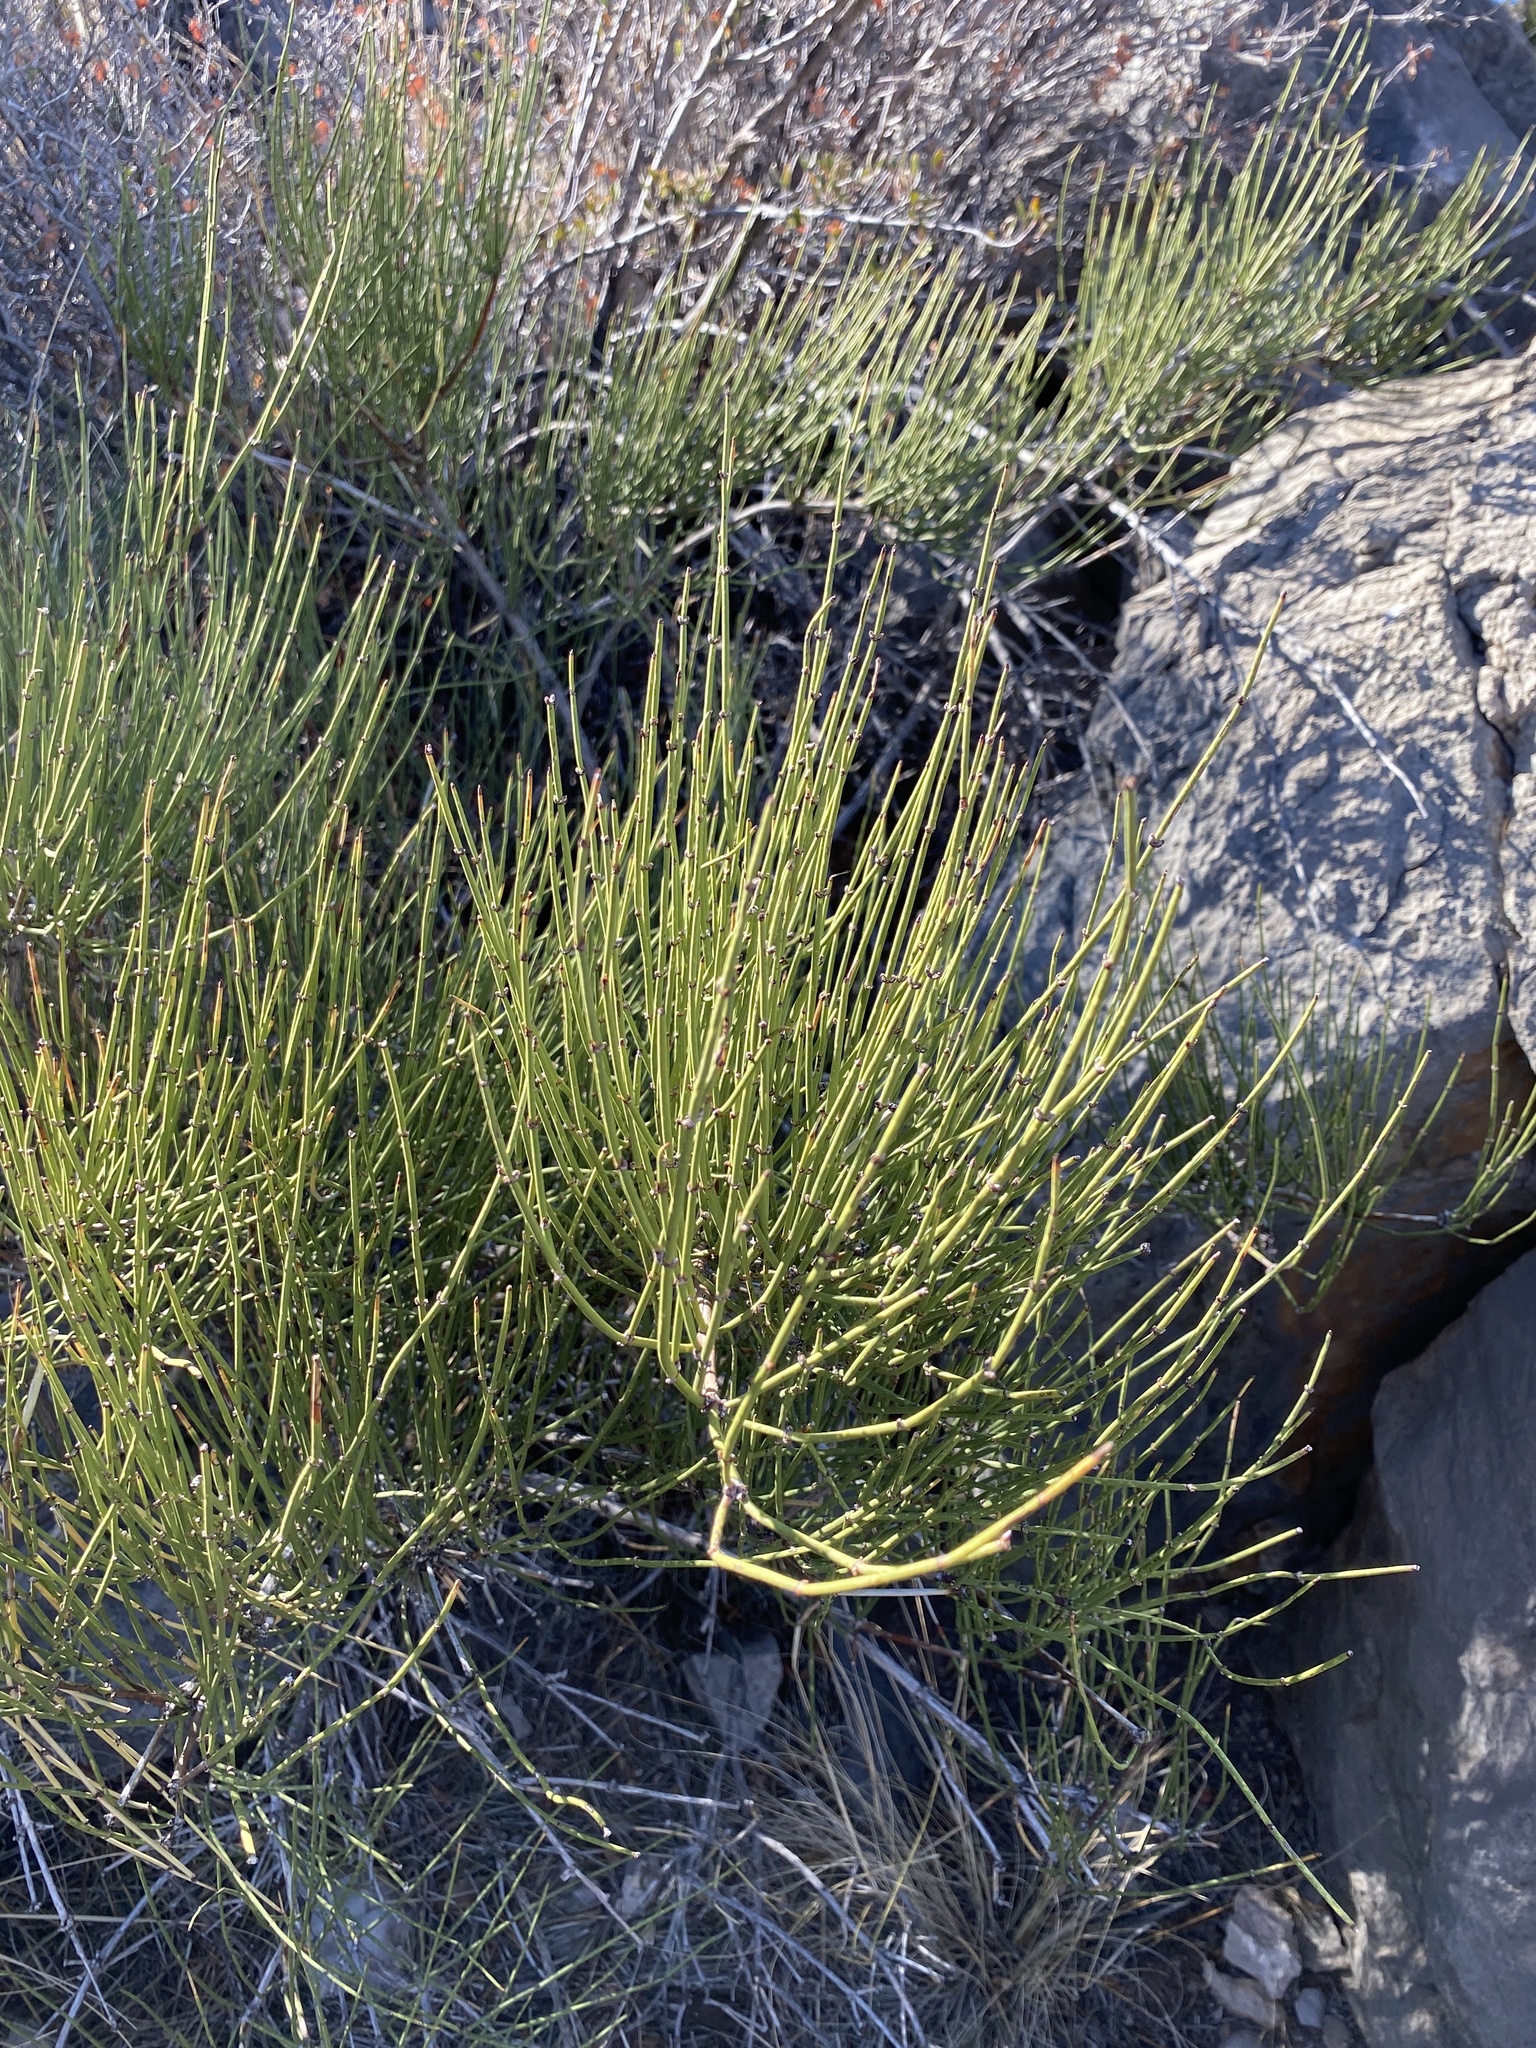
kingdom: Plantae
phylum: Tracheophyta
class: Gnetopsida
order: Ephedrales
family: Ephedraceae
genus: Ephedra
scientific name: Ephedra trifurca
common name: Mexican-tea
